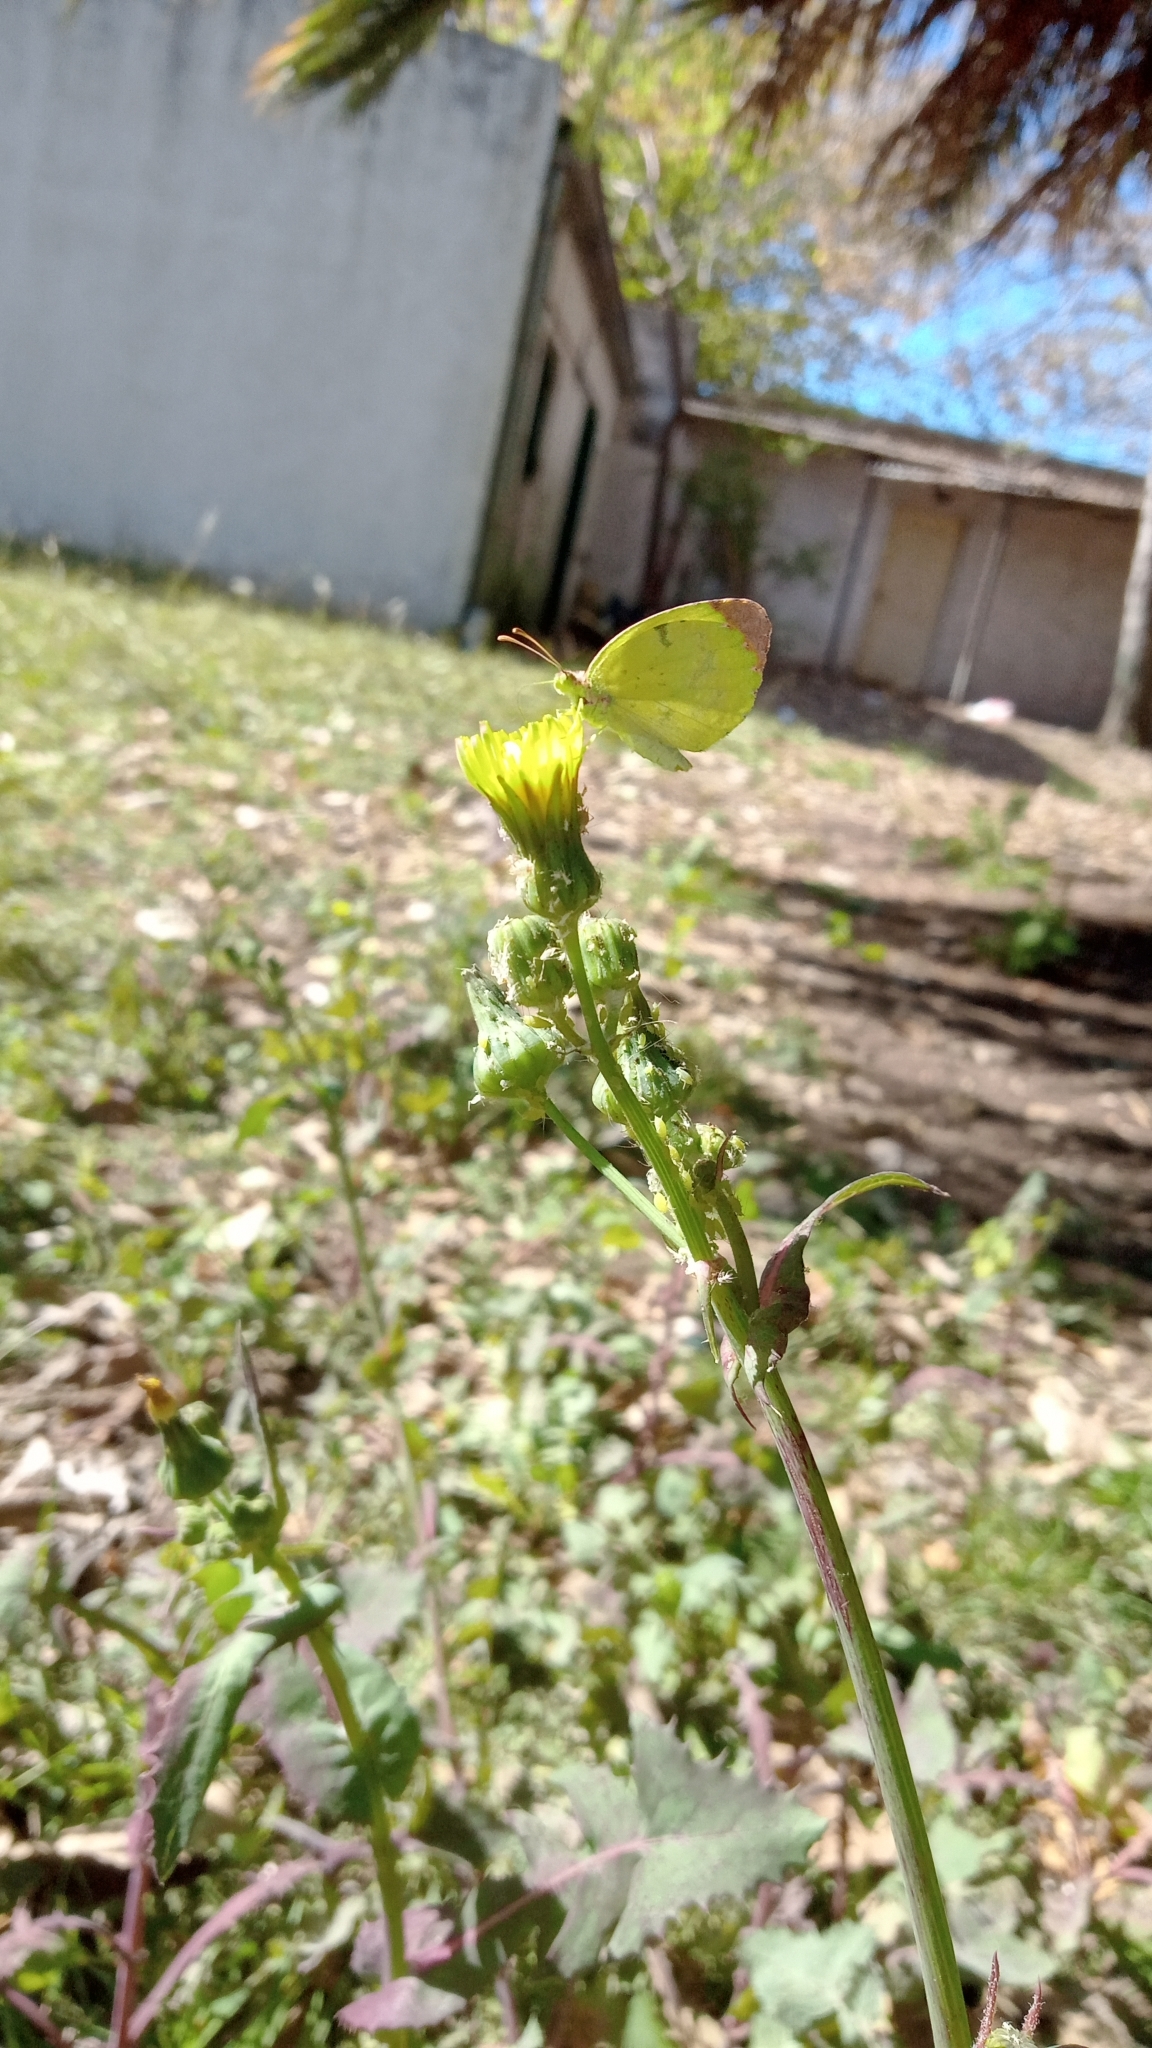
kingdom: Animalia
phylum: Arthropoda
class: Insecta
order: Lepidoptera
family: Pieridae
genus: Teriocolias
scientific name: Teriocolias
